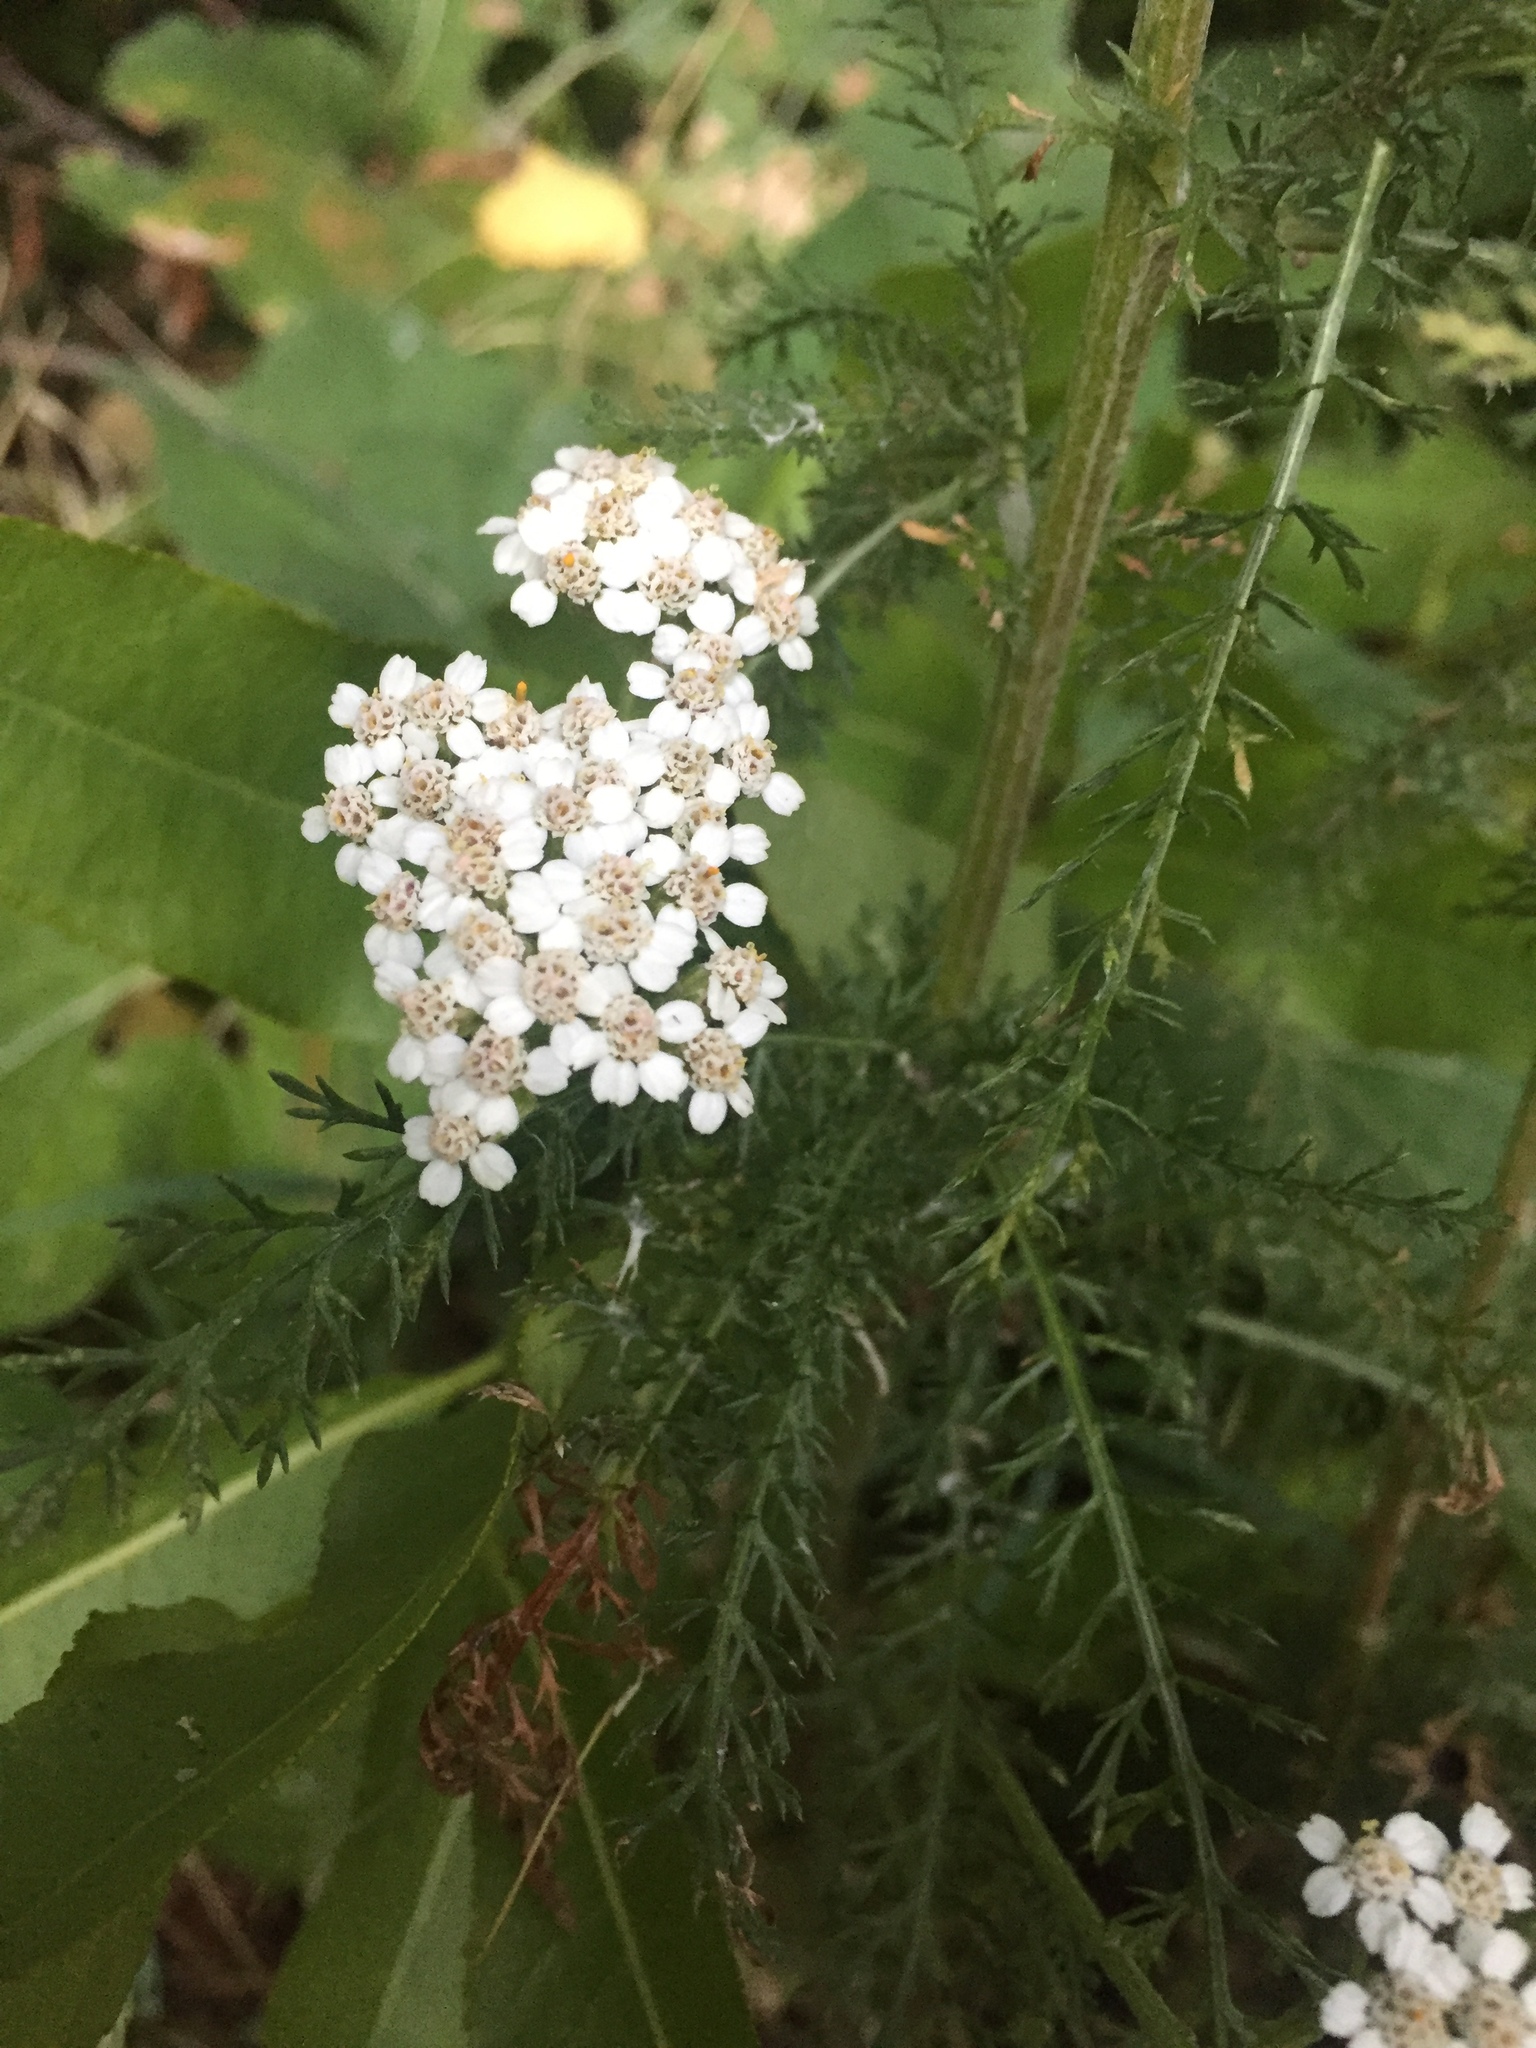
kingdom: Plantae
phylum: Tracheophyta
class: Magnoliopsida
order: Asterales
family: Asteraceae
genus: Achillea
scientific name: Achillea millefolium
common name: Yarrow
